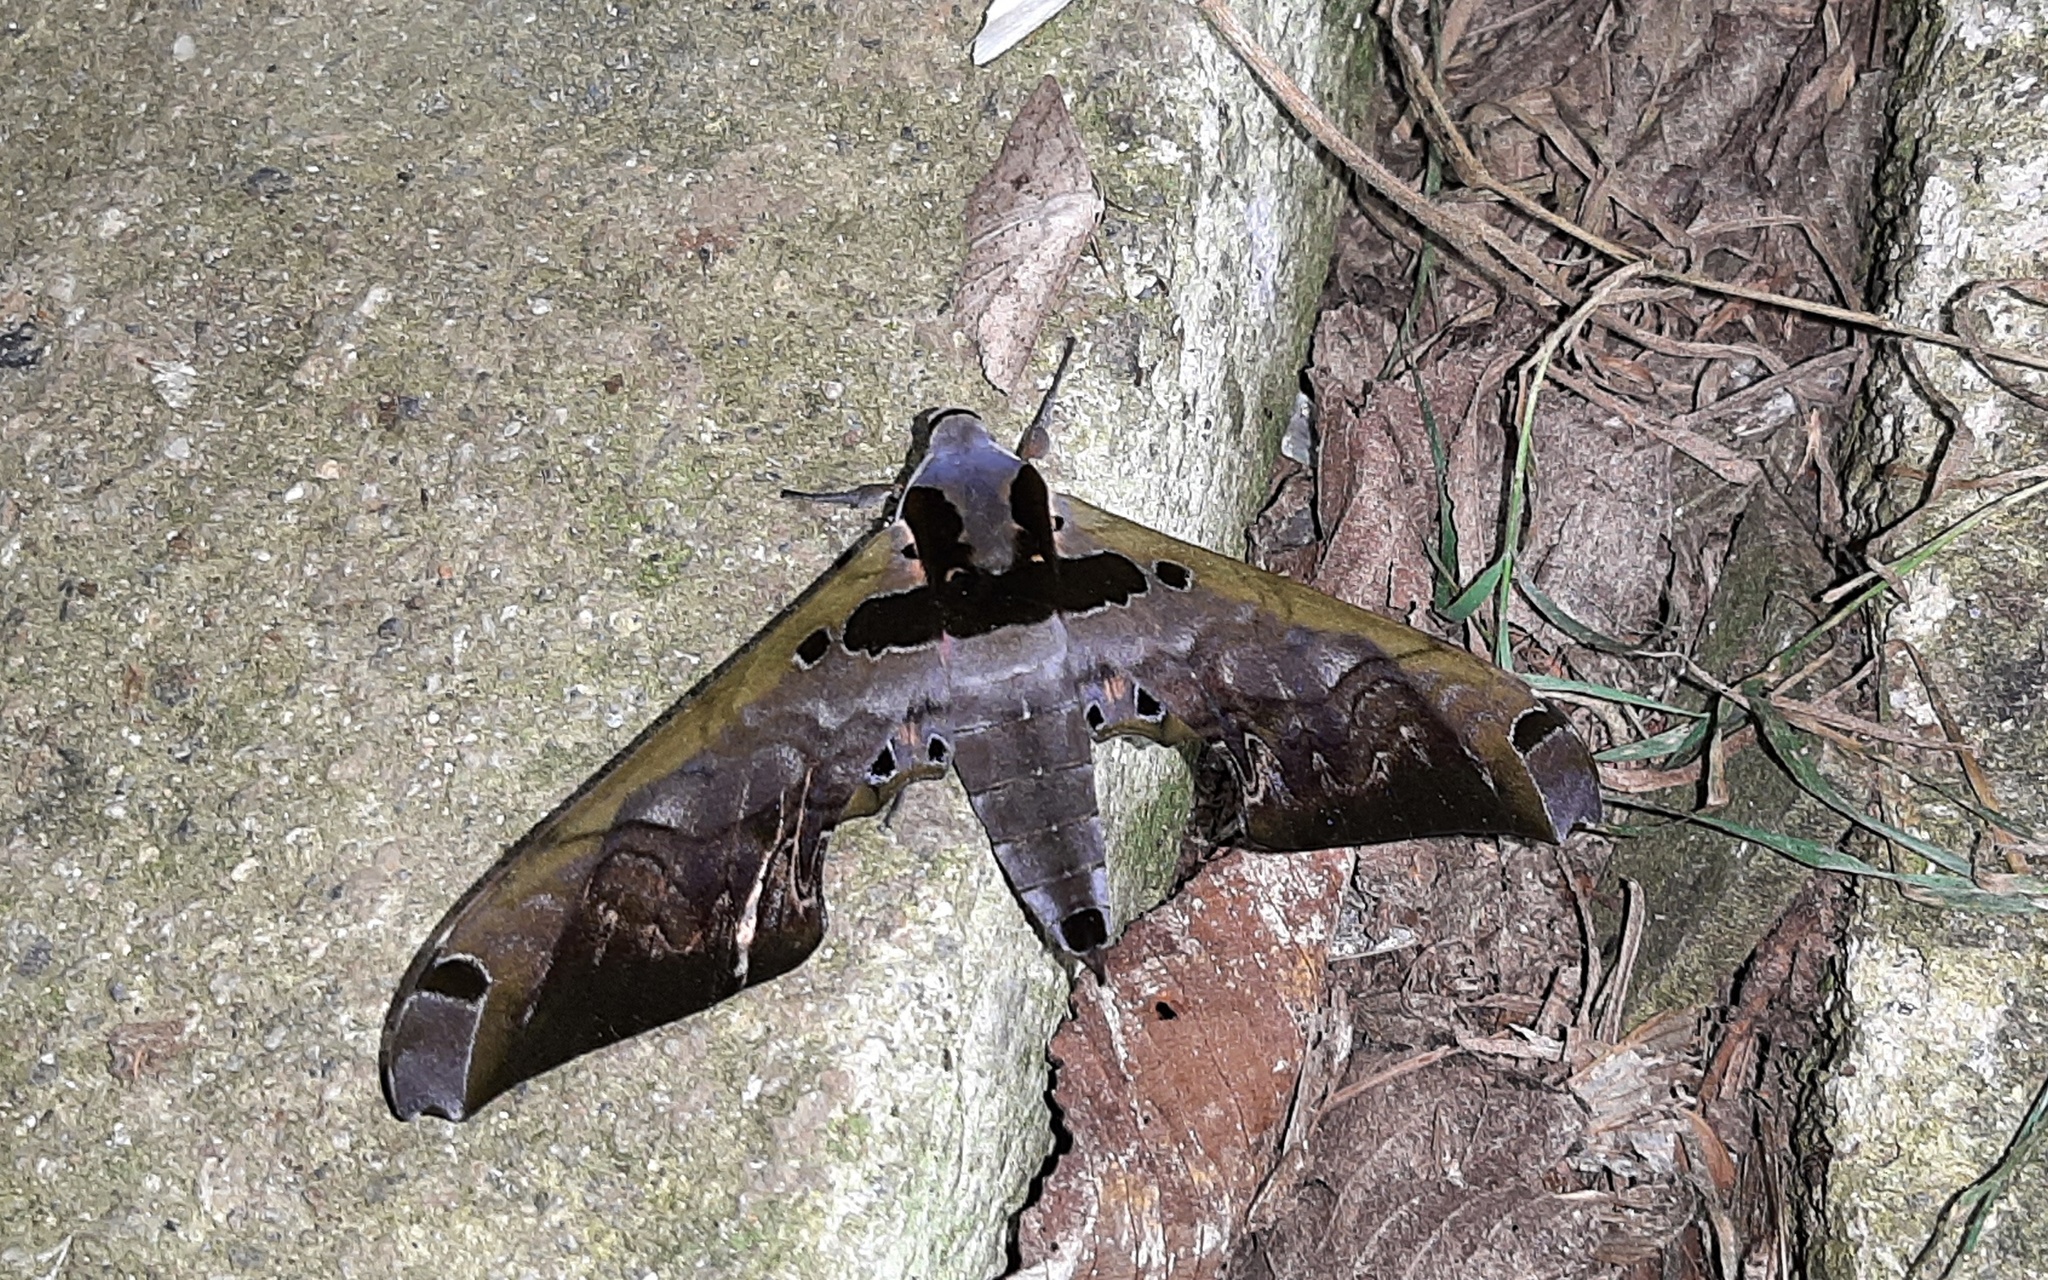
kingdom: Animalia
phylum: Arthropoda
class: Insecta
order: Lepidoptera
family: Sphingidae
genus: Adhemarius
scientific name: Adhemarius sexoculata
